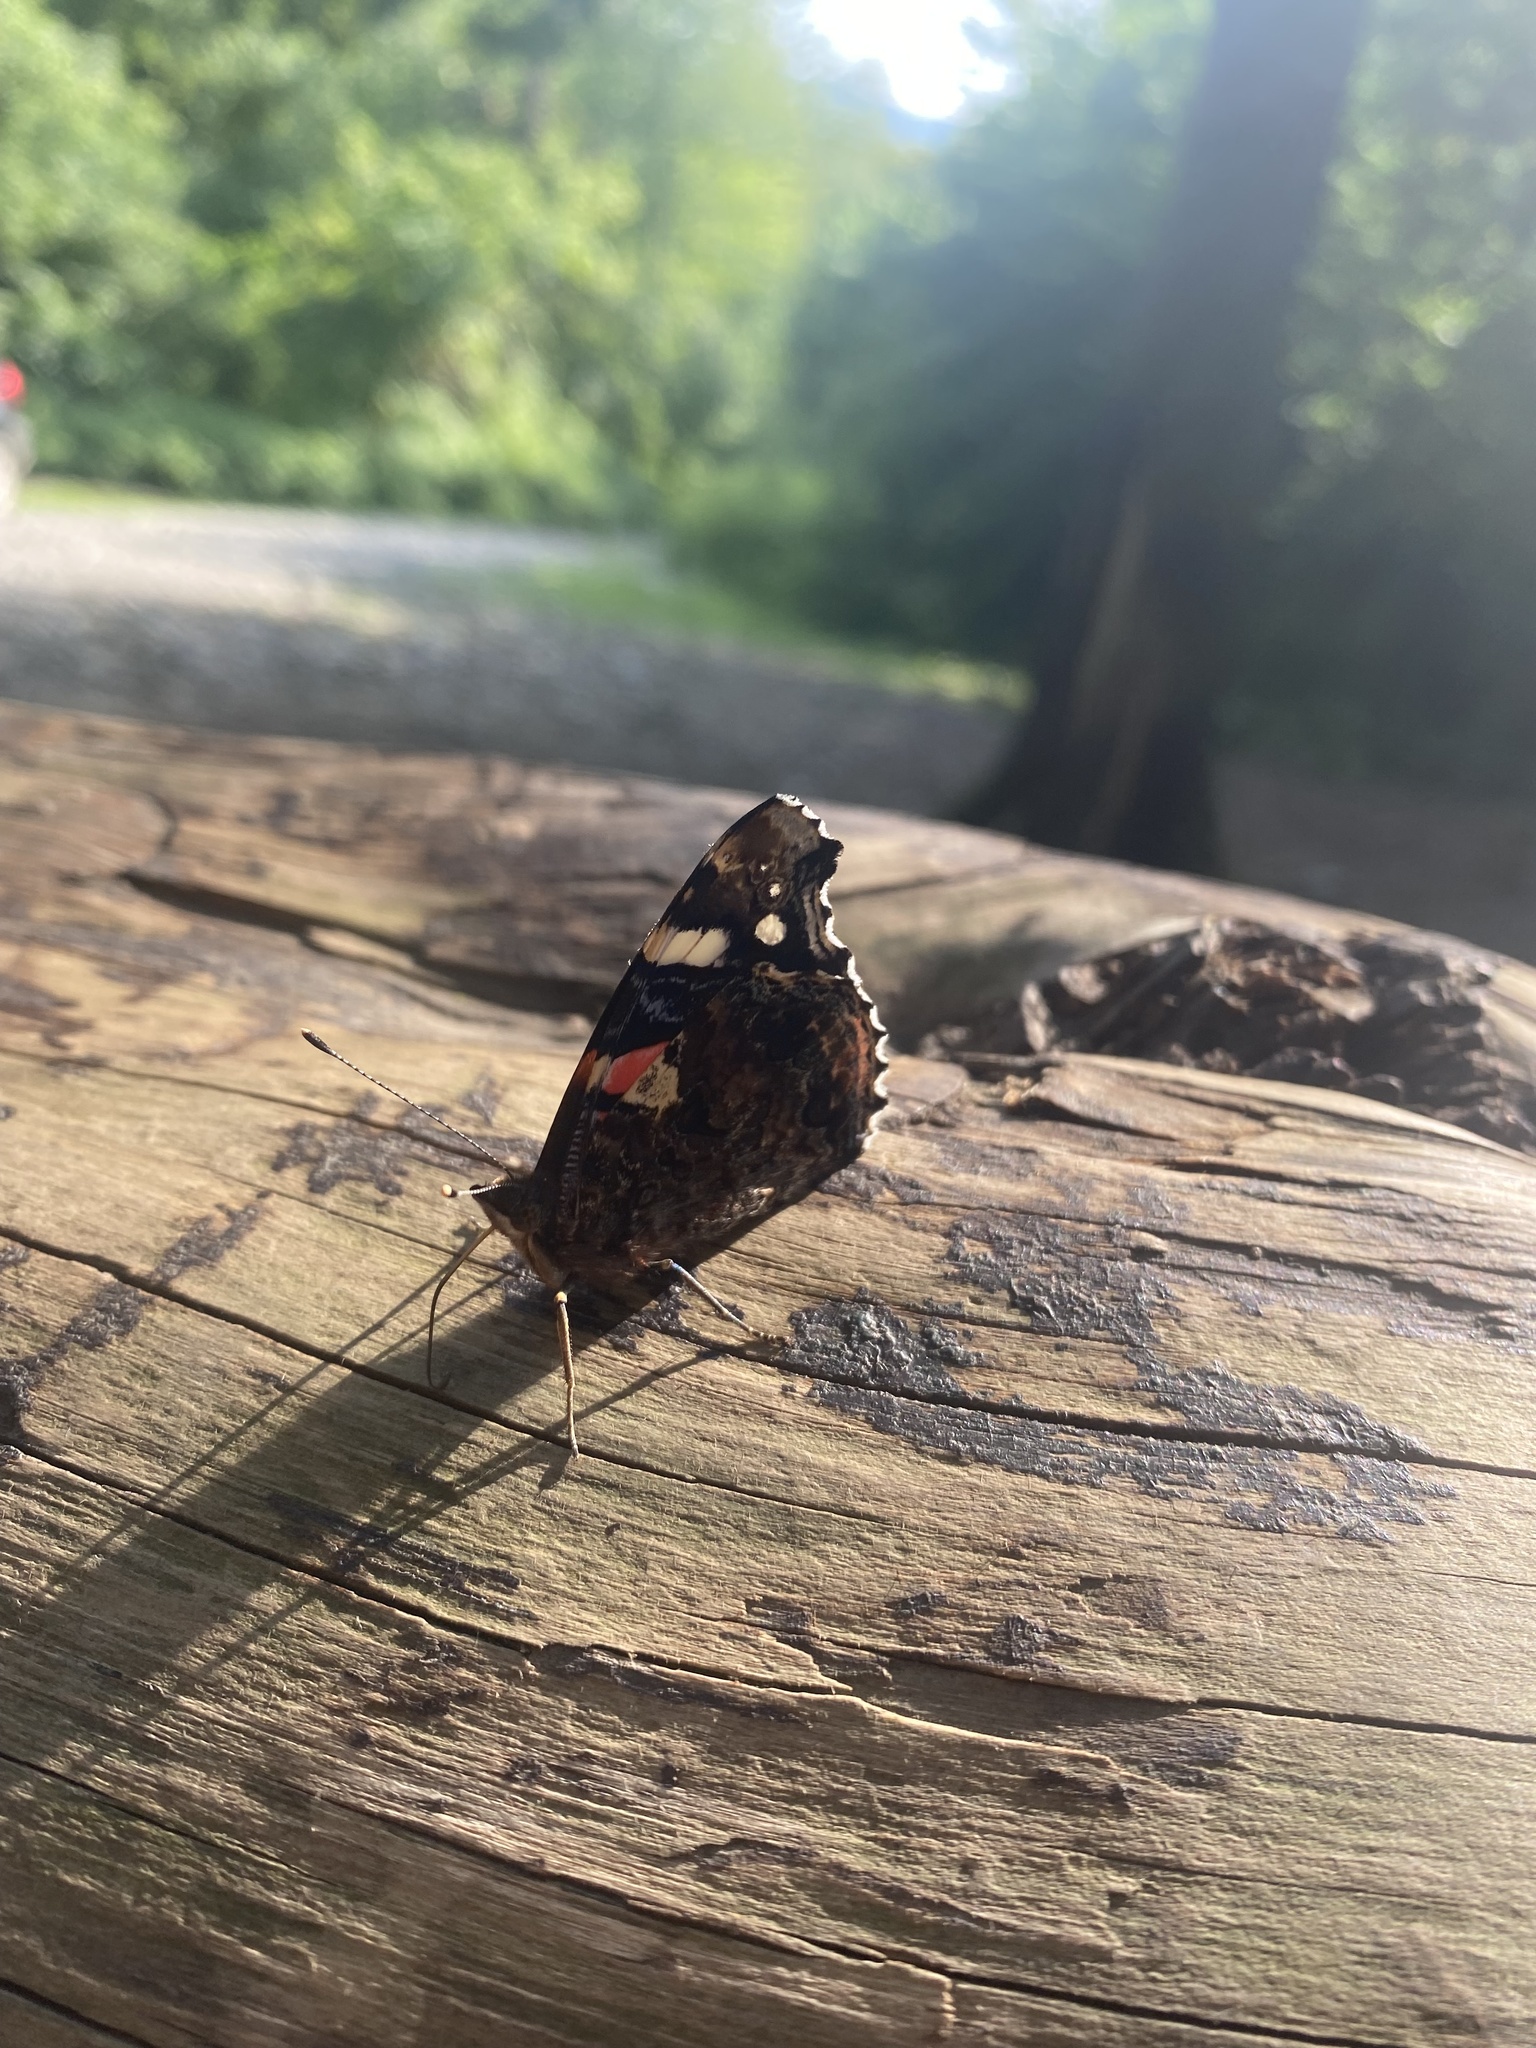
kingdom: Animalia
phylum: Arthropoda
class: Insecta
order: Lepidoptera
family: Nymphalidae
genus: Vanessa
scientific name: Vanessa atalanta
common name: Red admiral
